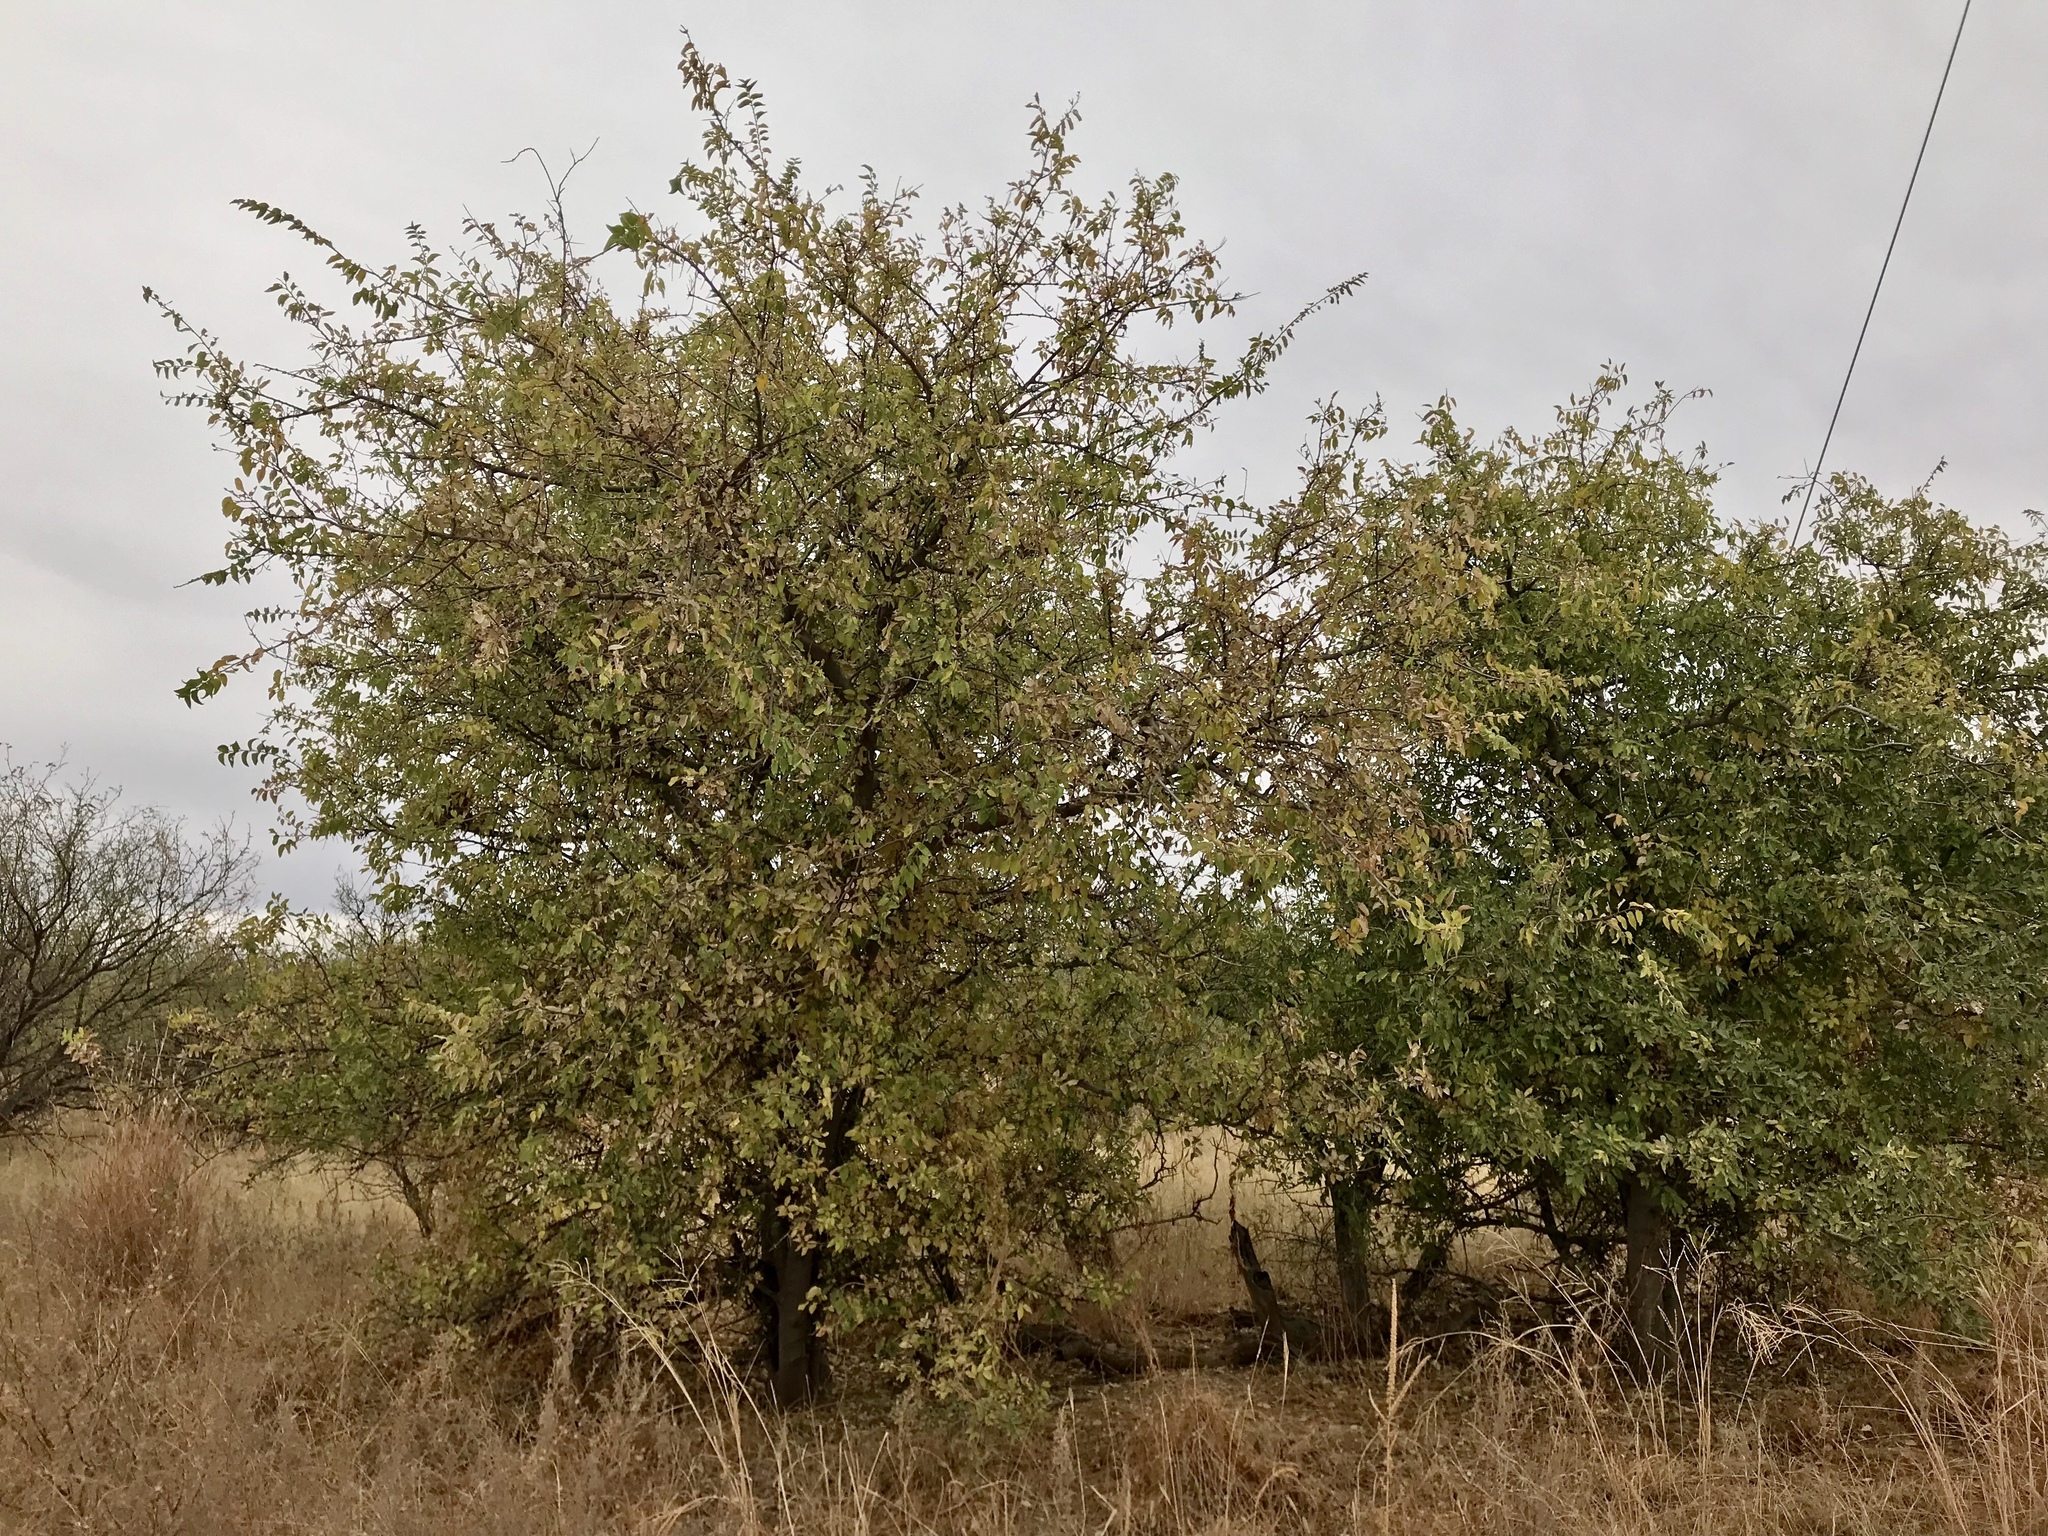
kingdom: Plantae
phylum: Tracheophyta
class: Magnoliopsida
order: Rosales
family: Cannabaceae
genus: Celtis
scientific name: Celtis reticulata
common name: Netleaf hackberry
